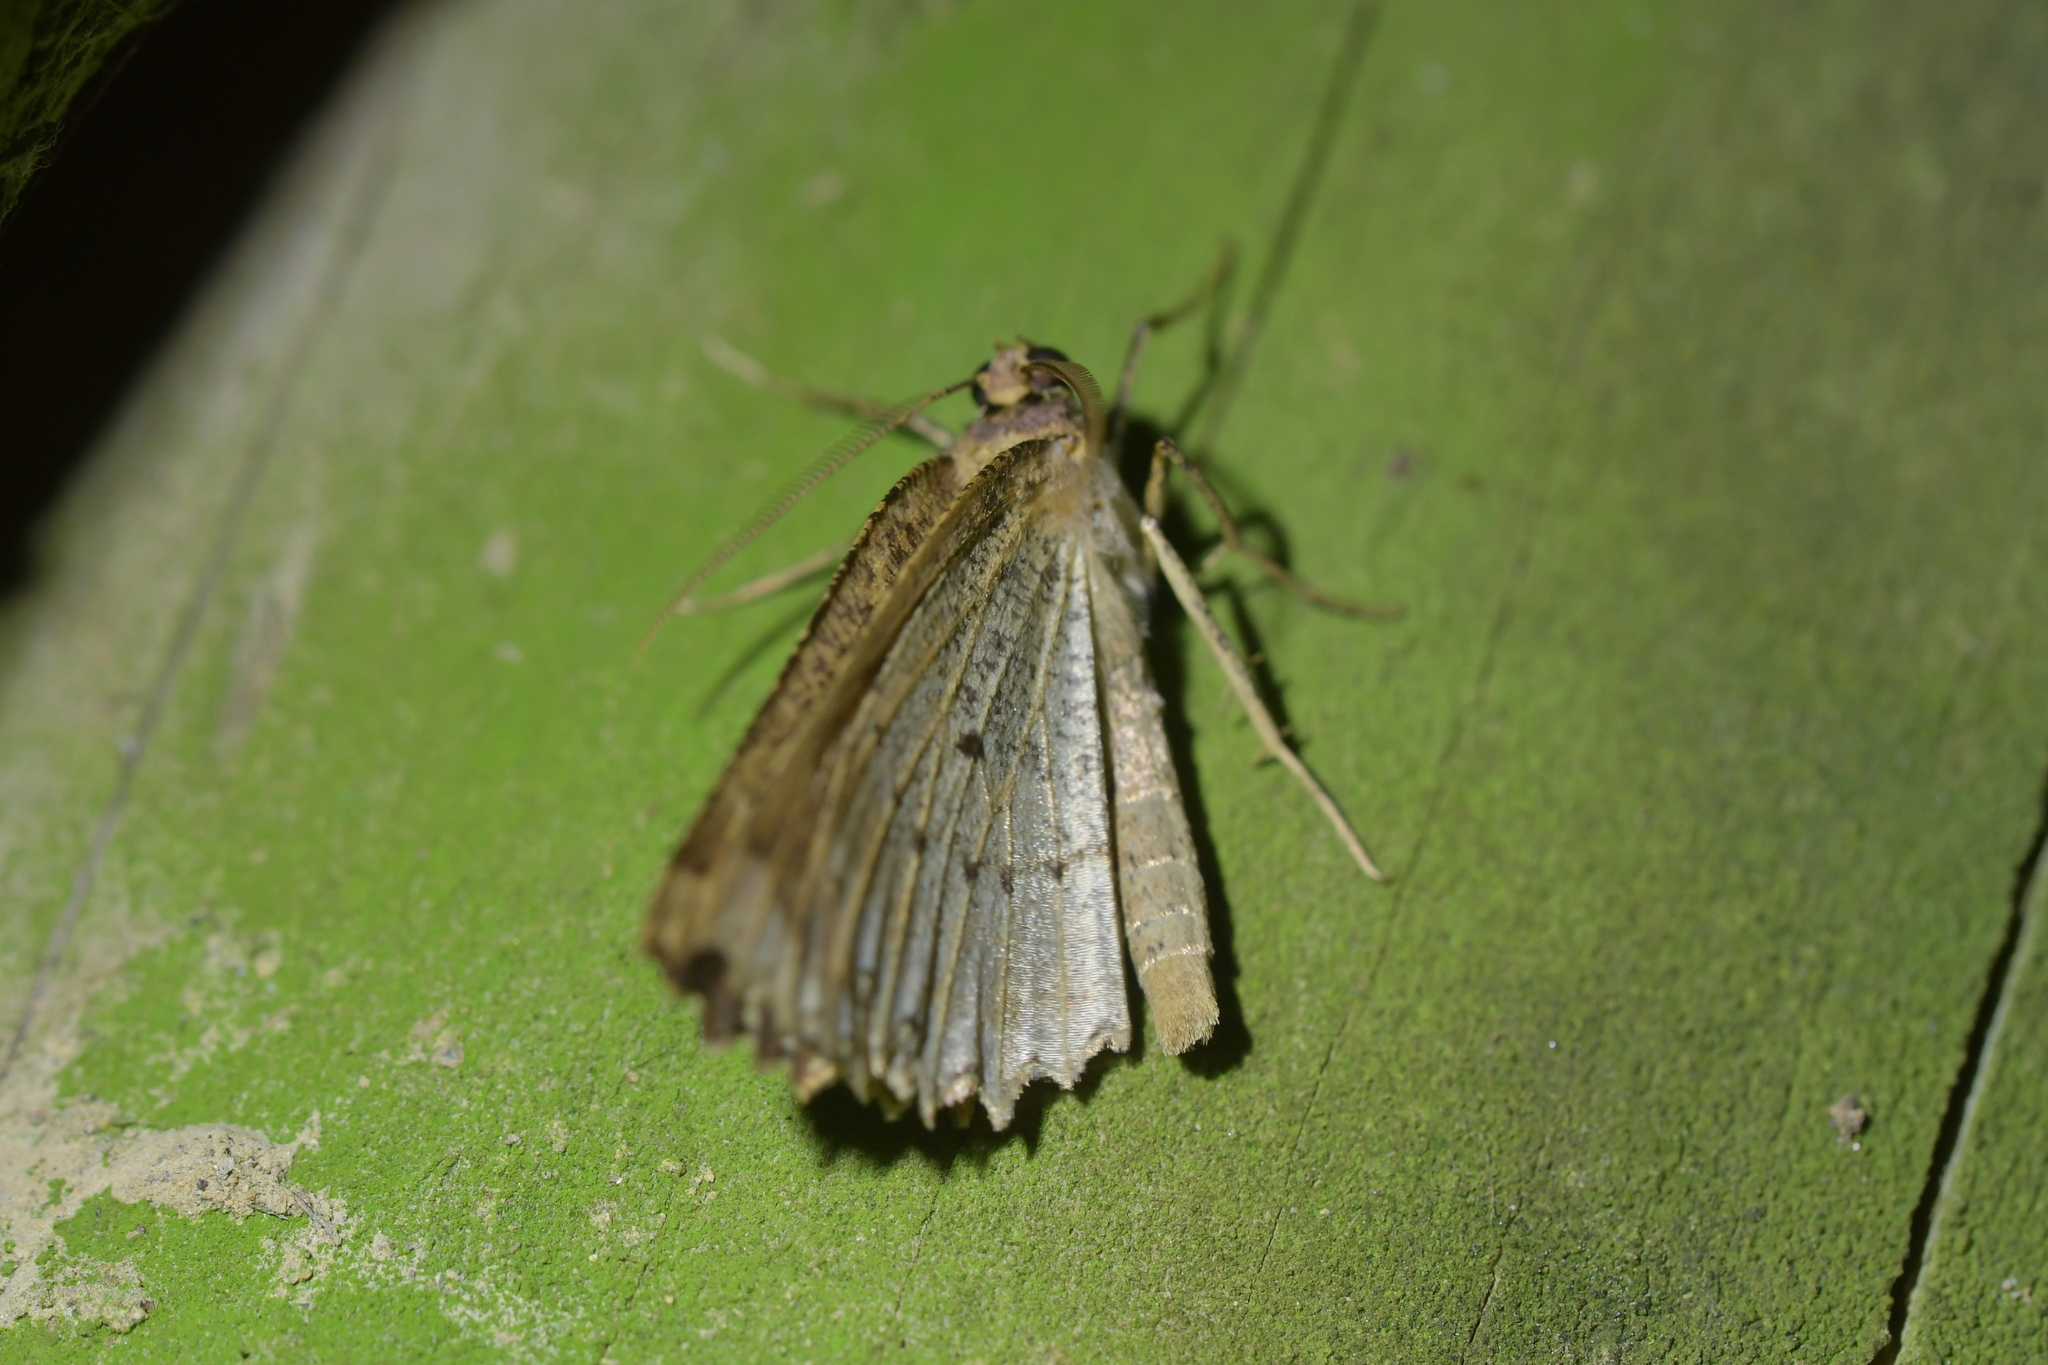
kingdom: Animalia
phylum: Arthropoda
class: Insecta
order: Lepidoptera
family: Geometridae
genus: Gellonia
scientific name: Gellonia pannularia
